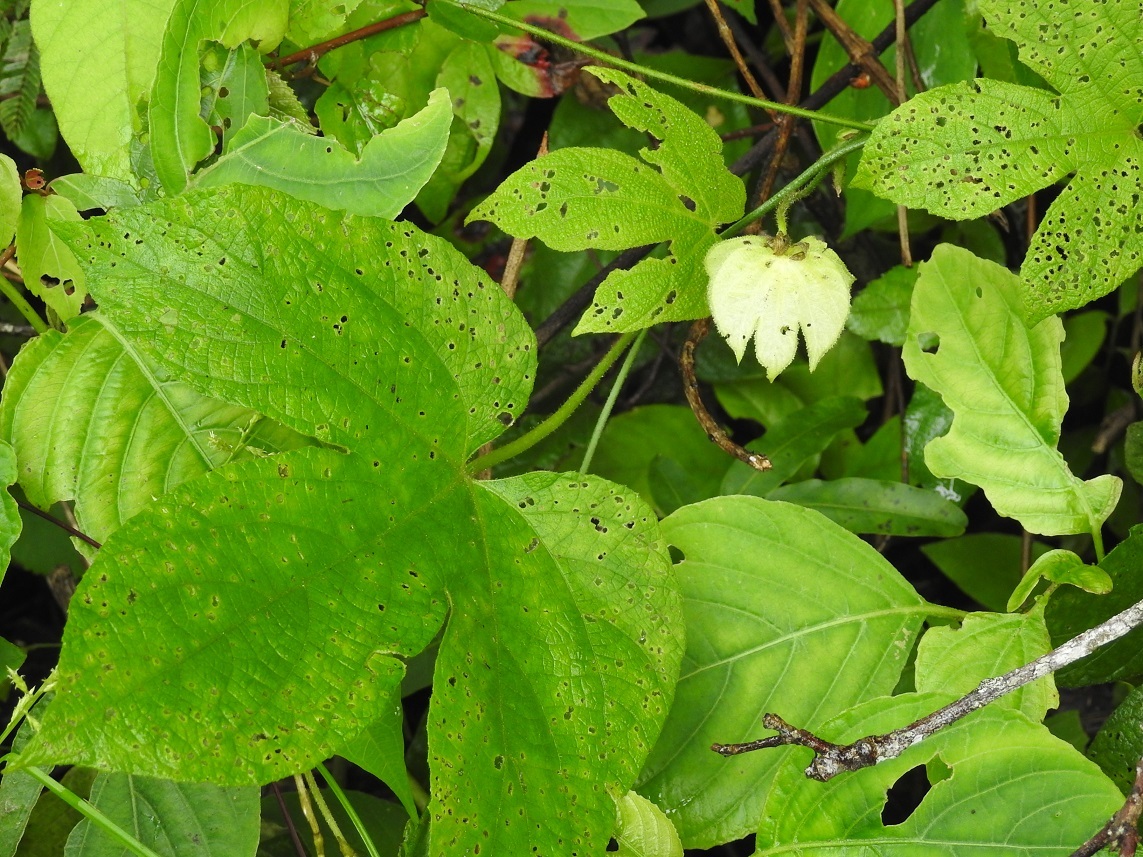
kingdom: Plantae
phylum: Tracheophyta
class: Magnoliopsida
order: Malpighiales
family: Euphorbiaceae
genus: Dalechampia
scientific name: Dalechampia scandens
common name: Spurgecreeper
